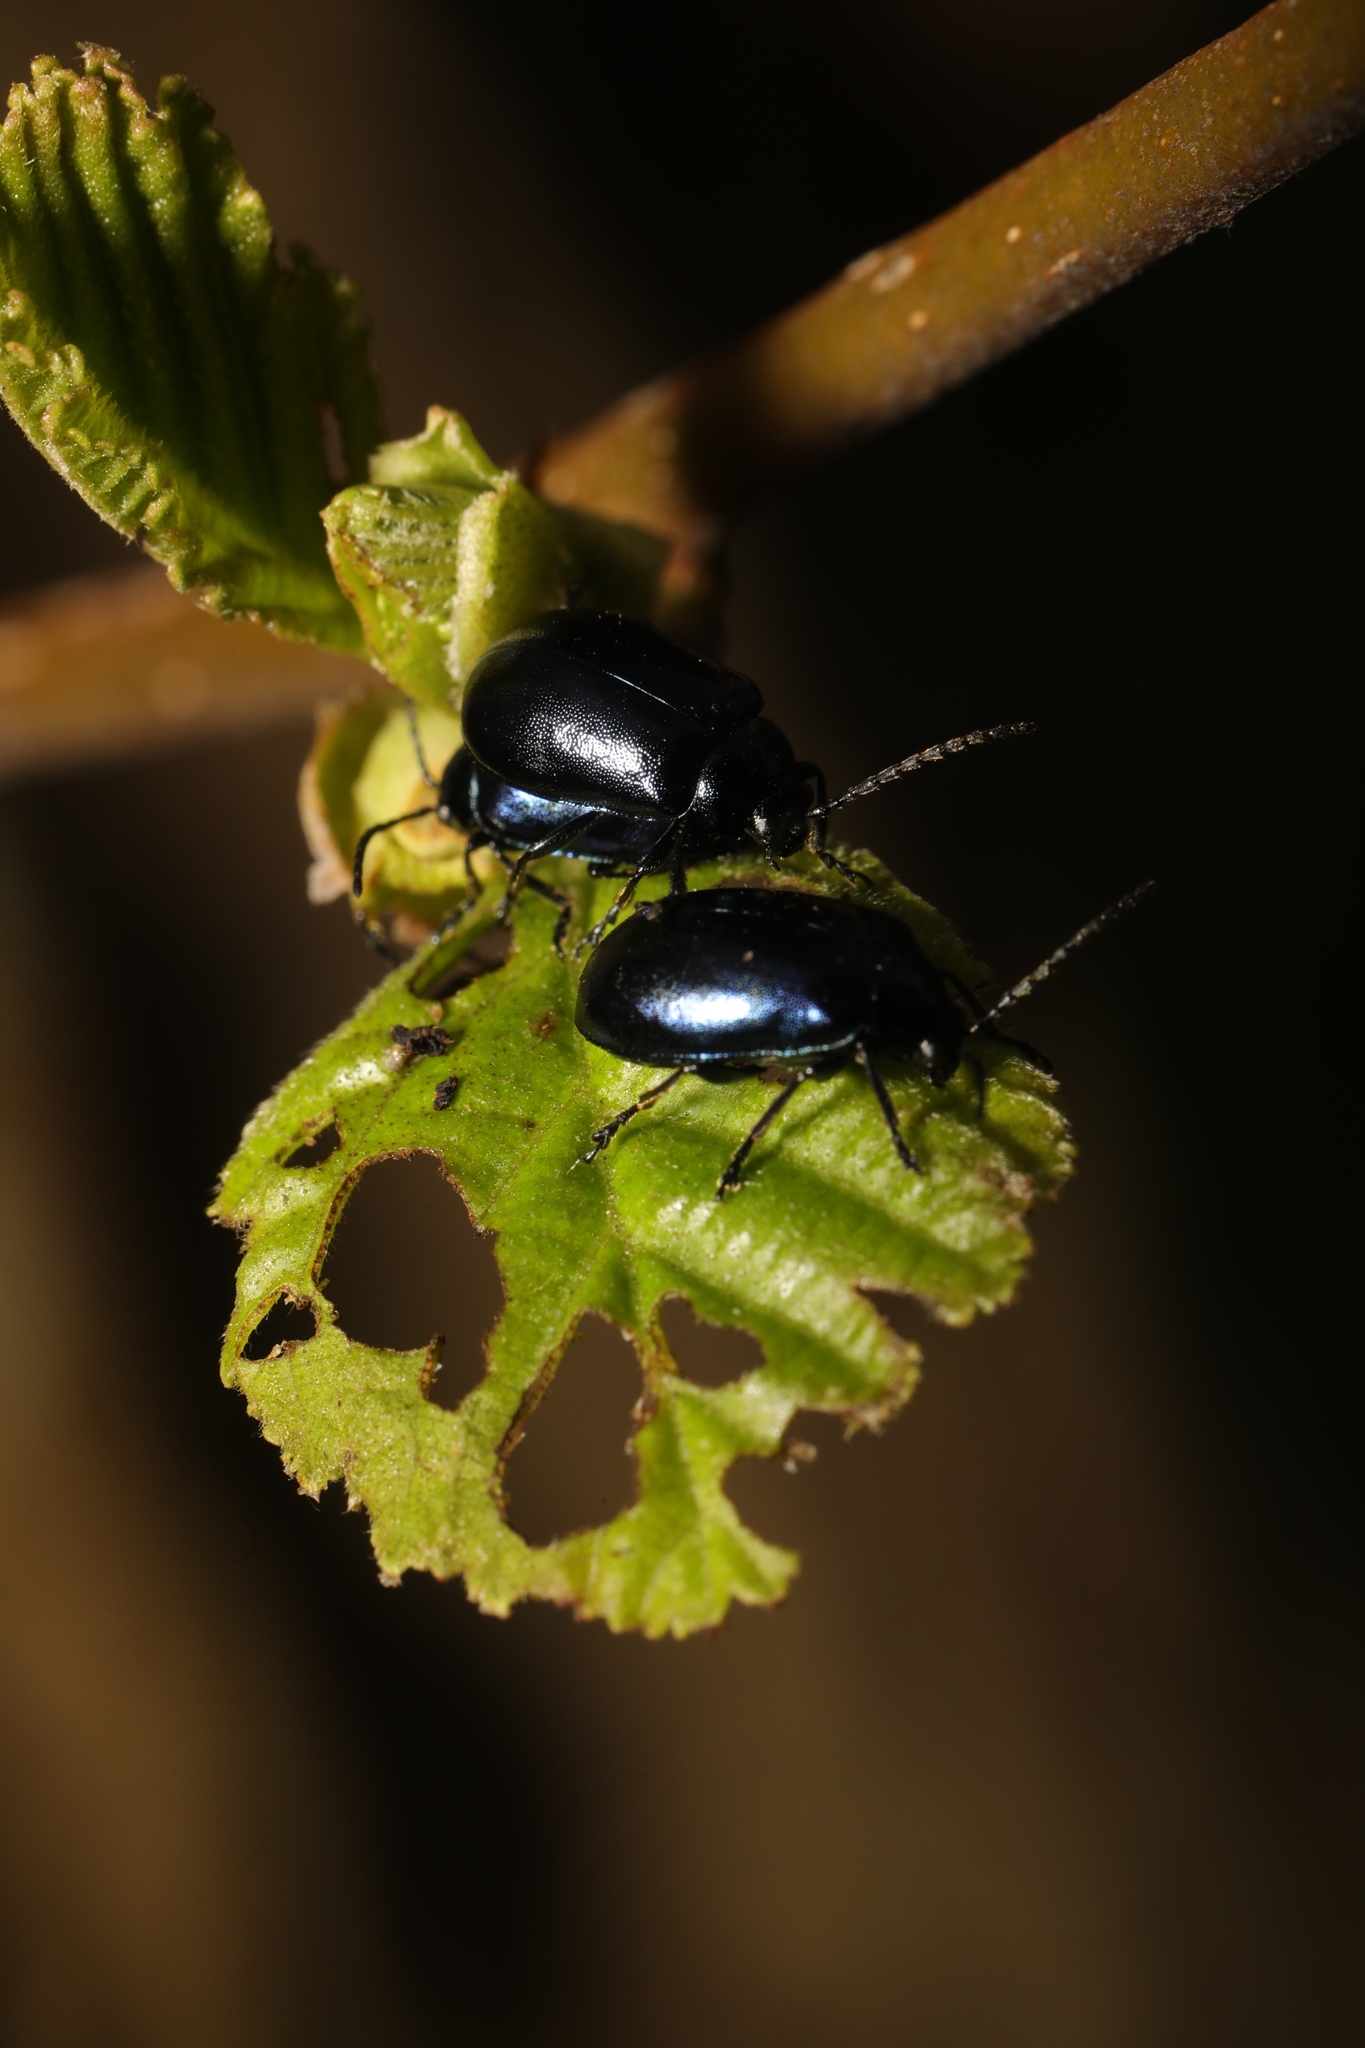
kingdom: Animalia
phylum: Arthropoda
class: Insecta
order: Coleoptera
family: Chrysomelidae
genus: Agelastica
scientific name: Agelastica alni
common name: Alder leaf beetle
